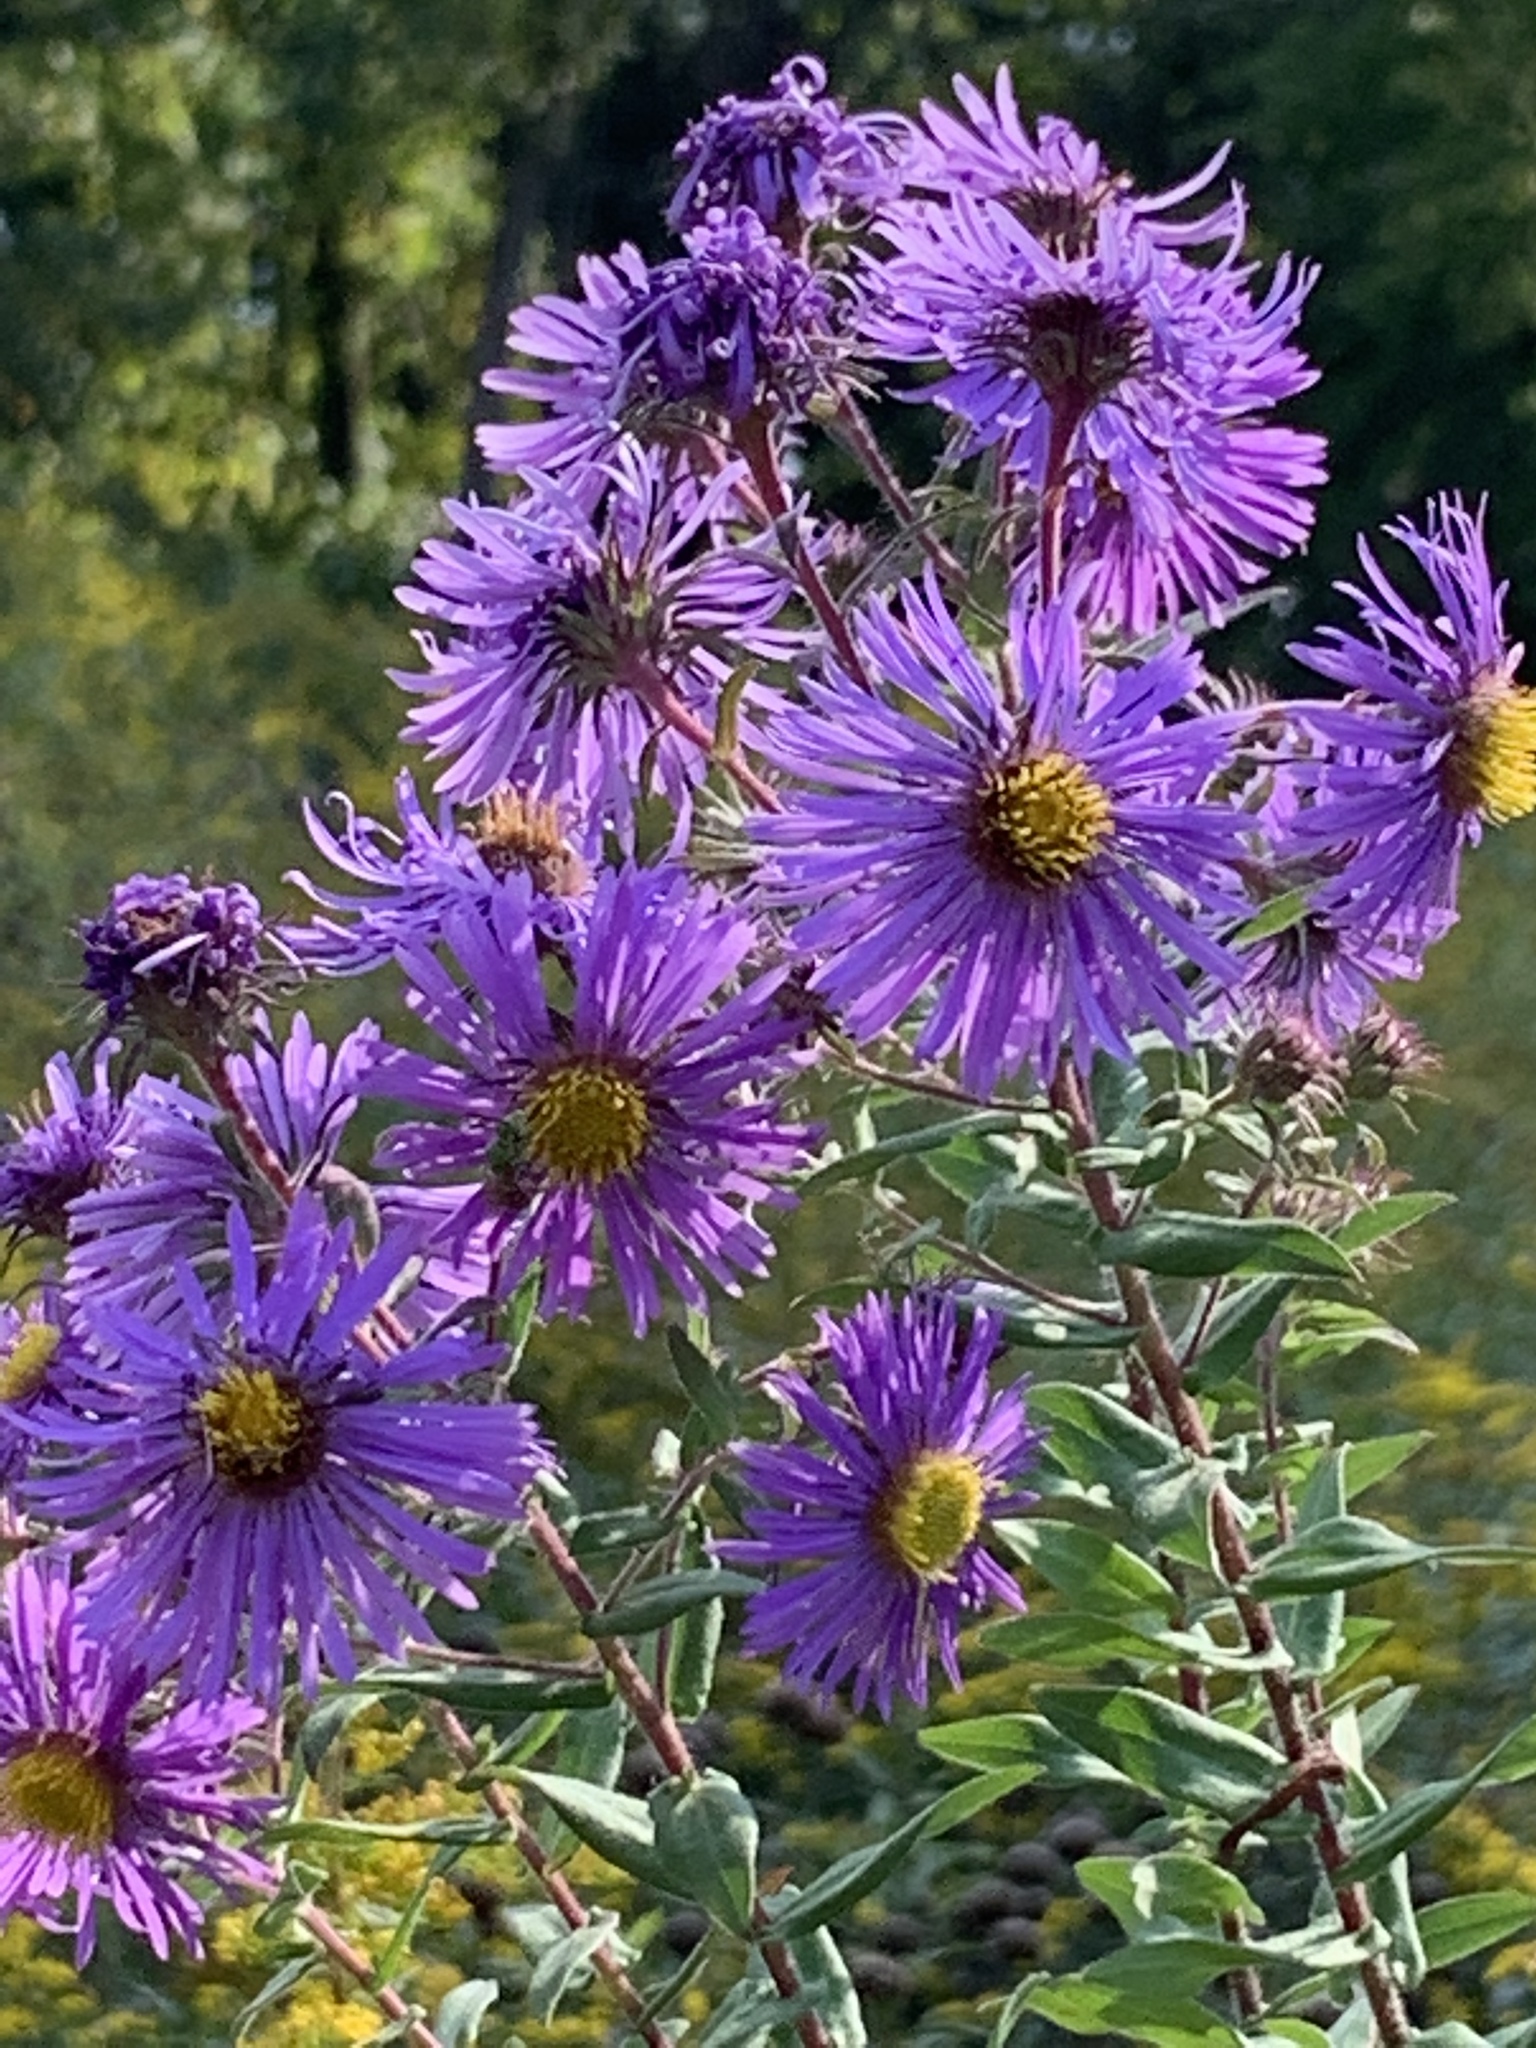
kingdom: Plantae
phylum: Tracheophyta
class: Magnoliopsida
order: Asterales
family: Asteraceae
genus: Symphyotrichum
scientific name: Symphyotrichum novae-angliae
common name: Michaelmas daisy
